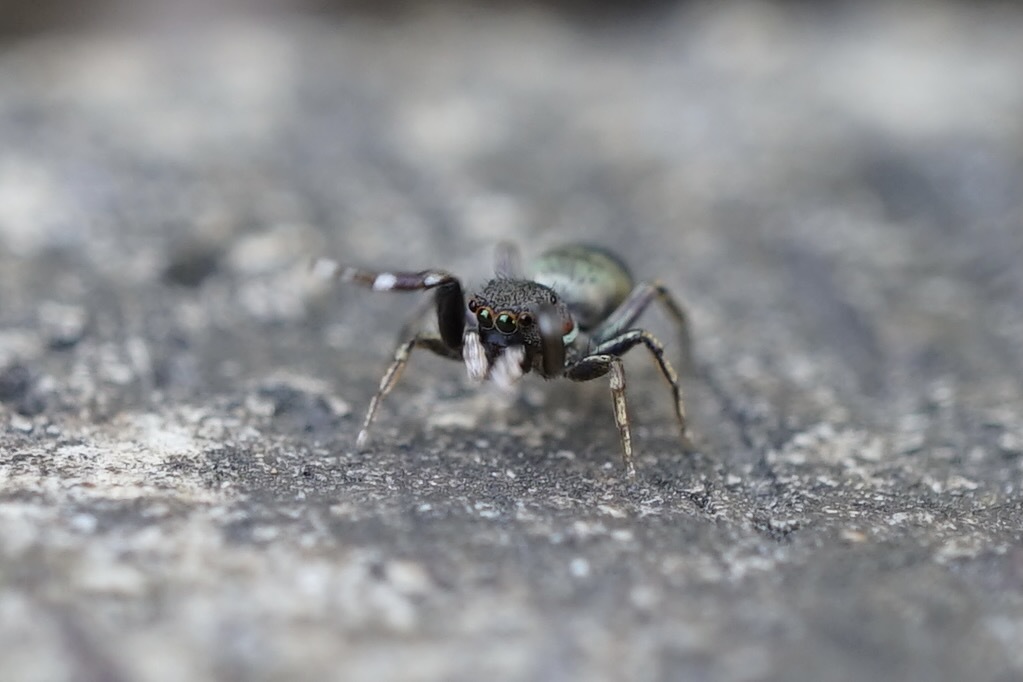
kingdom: Animalia
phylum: Arthropoda
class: Arachnida
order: Araneae
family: Salticidae
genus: Siler
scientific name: Siler cupreus
